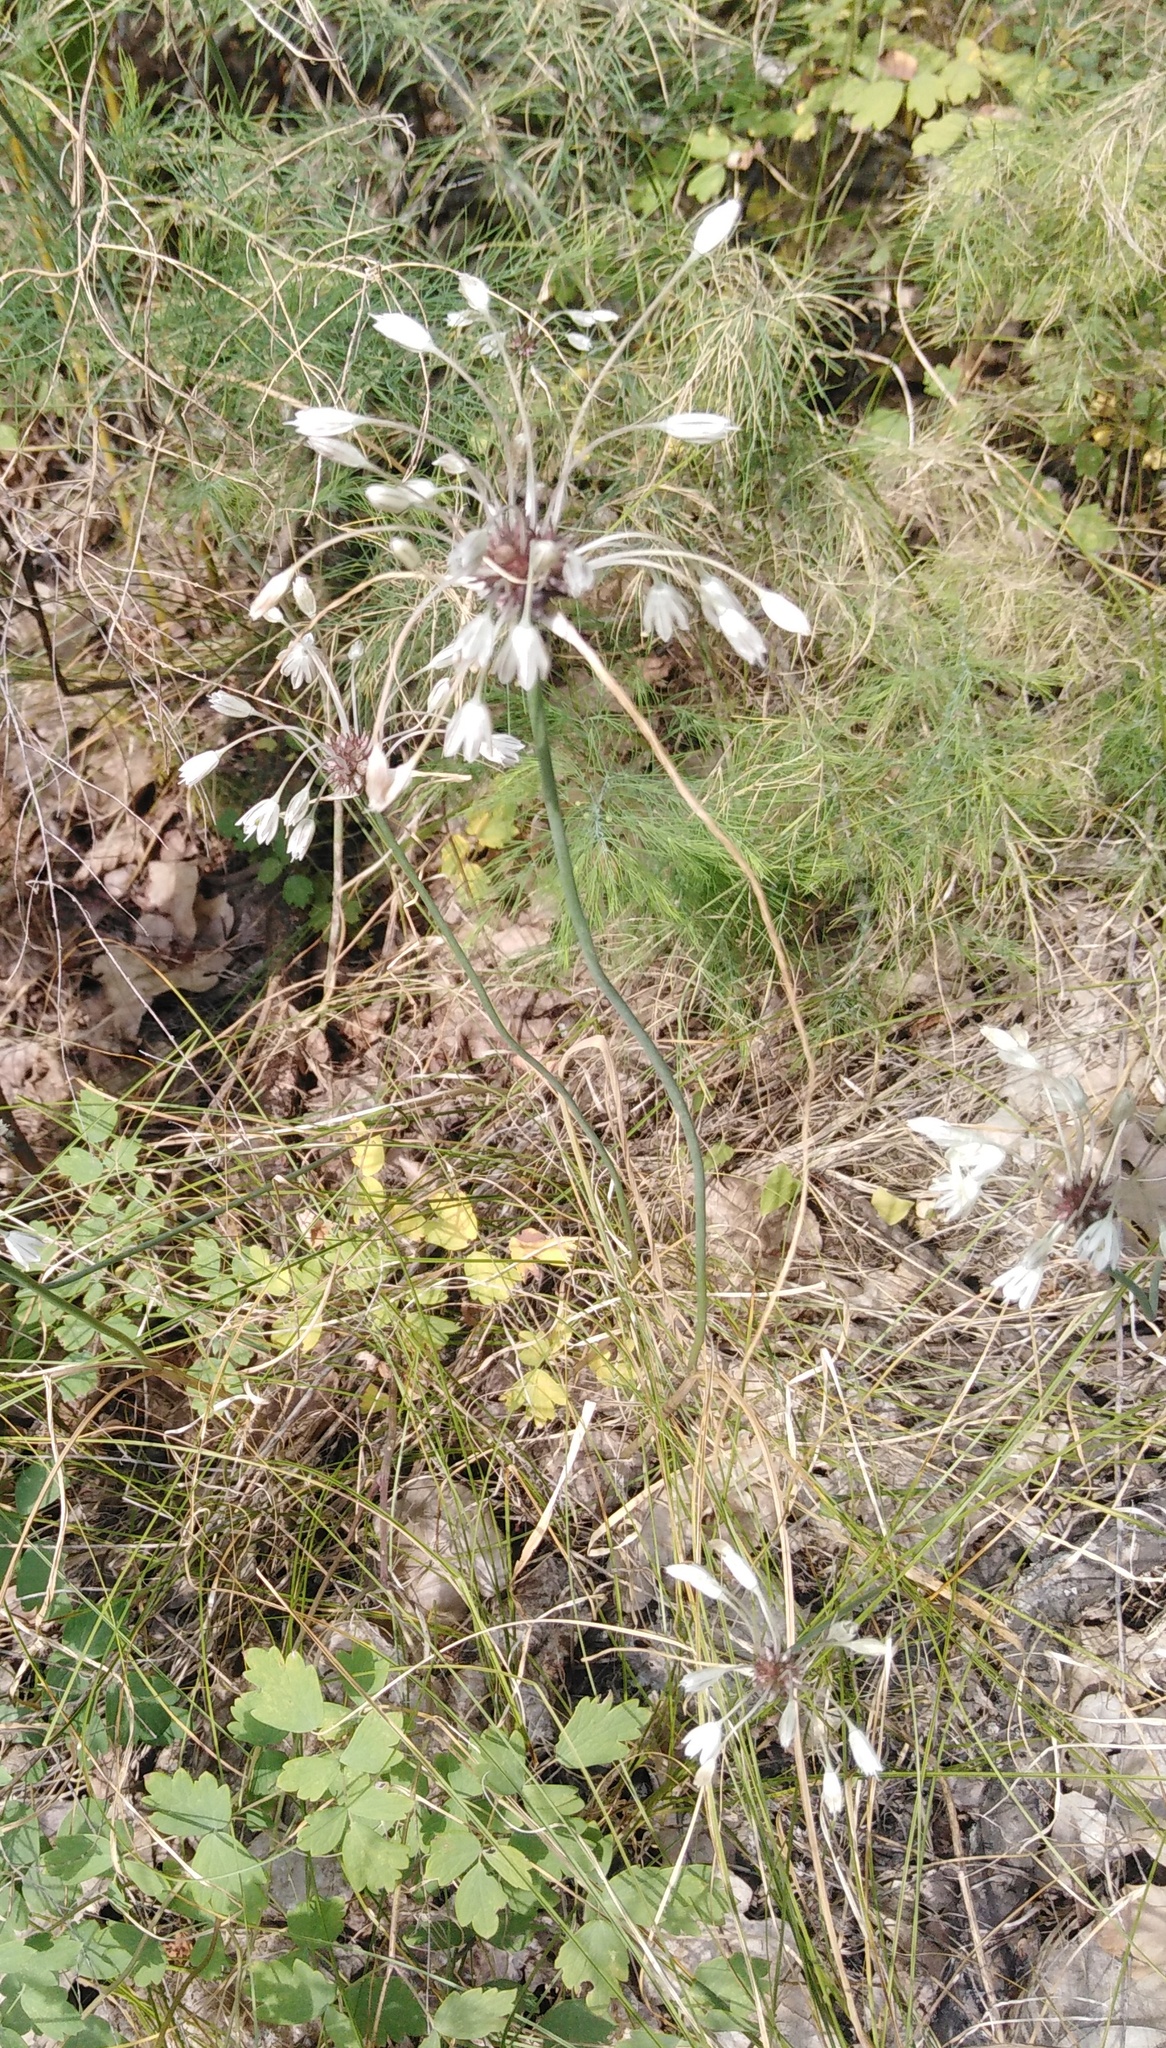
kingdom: Plantae
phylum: Tracheophyta
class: Liliopsida
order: Asparagales
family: Amaryllidaceae
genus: Allium
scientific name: Allium oleraceum
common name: Field garlic
